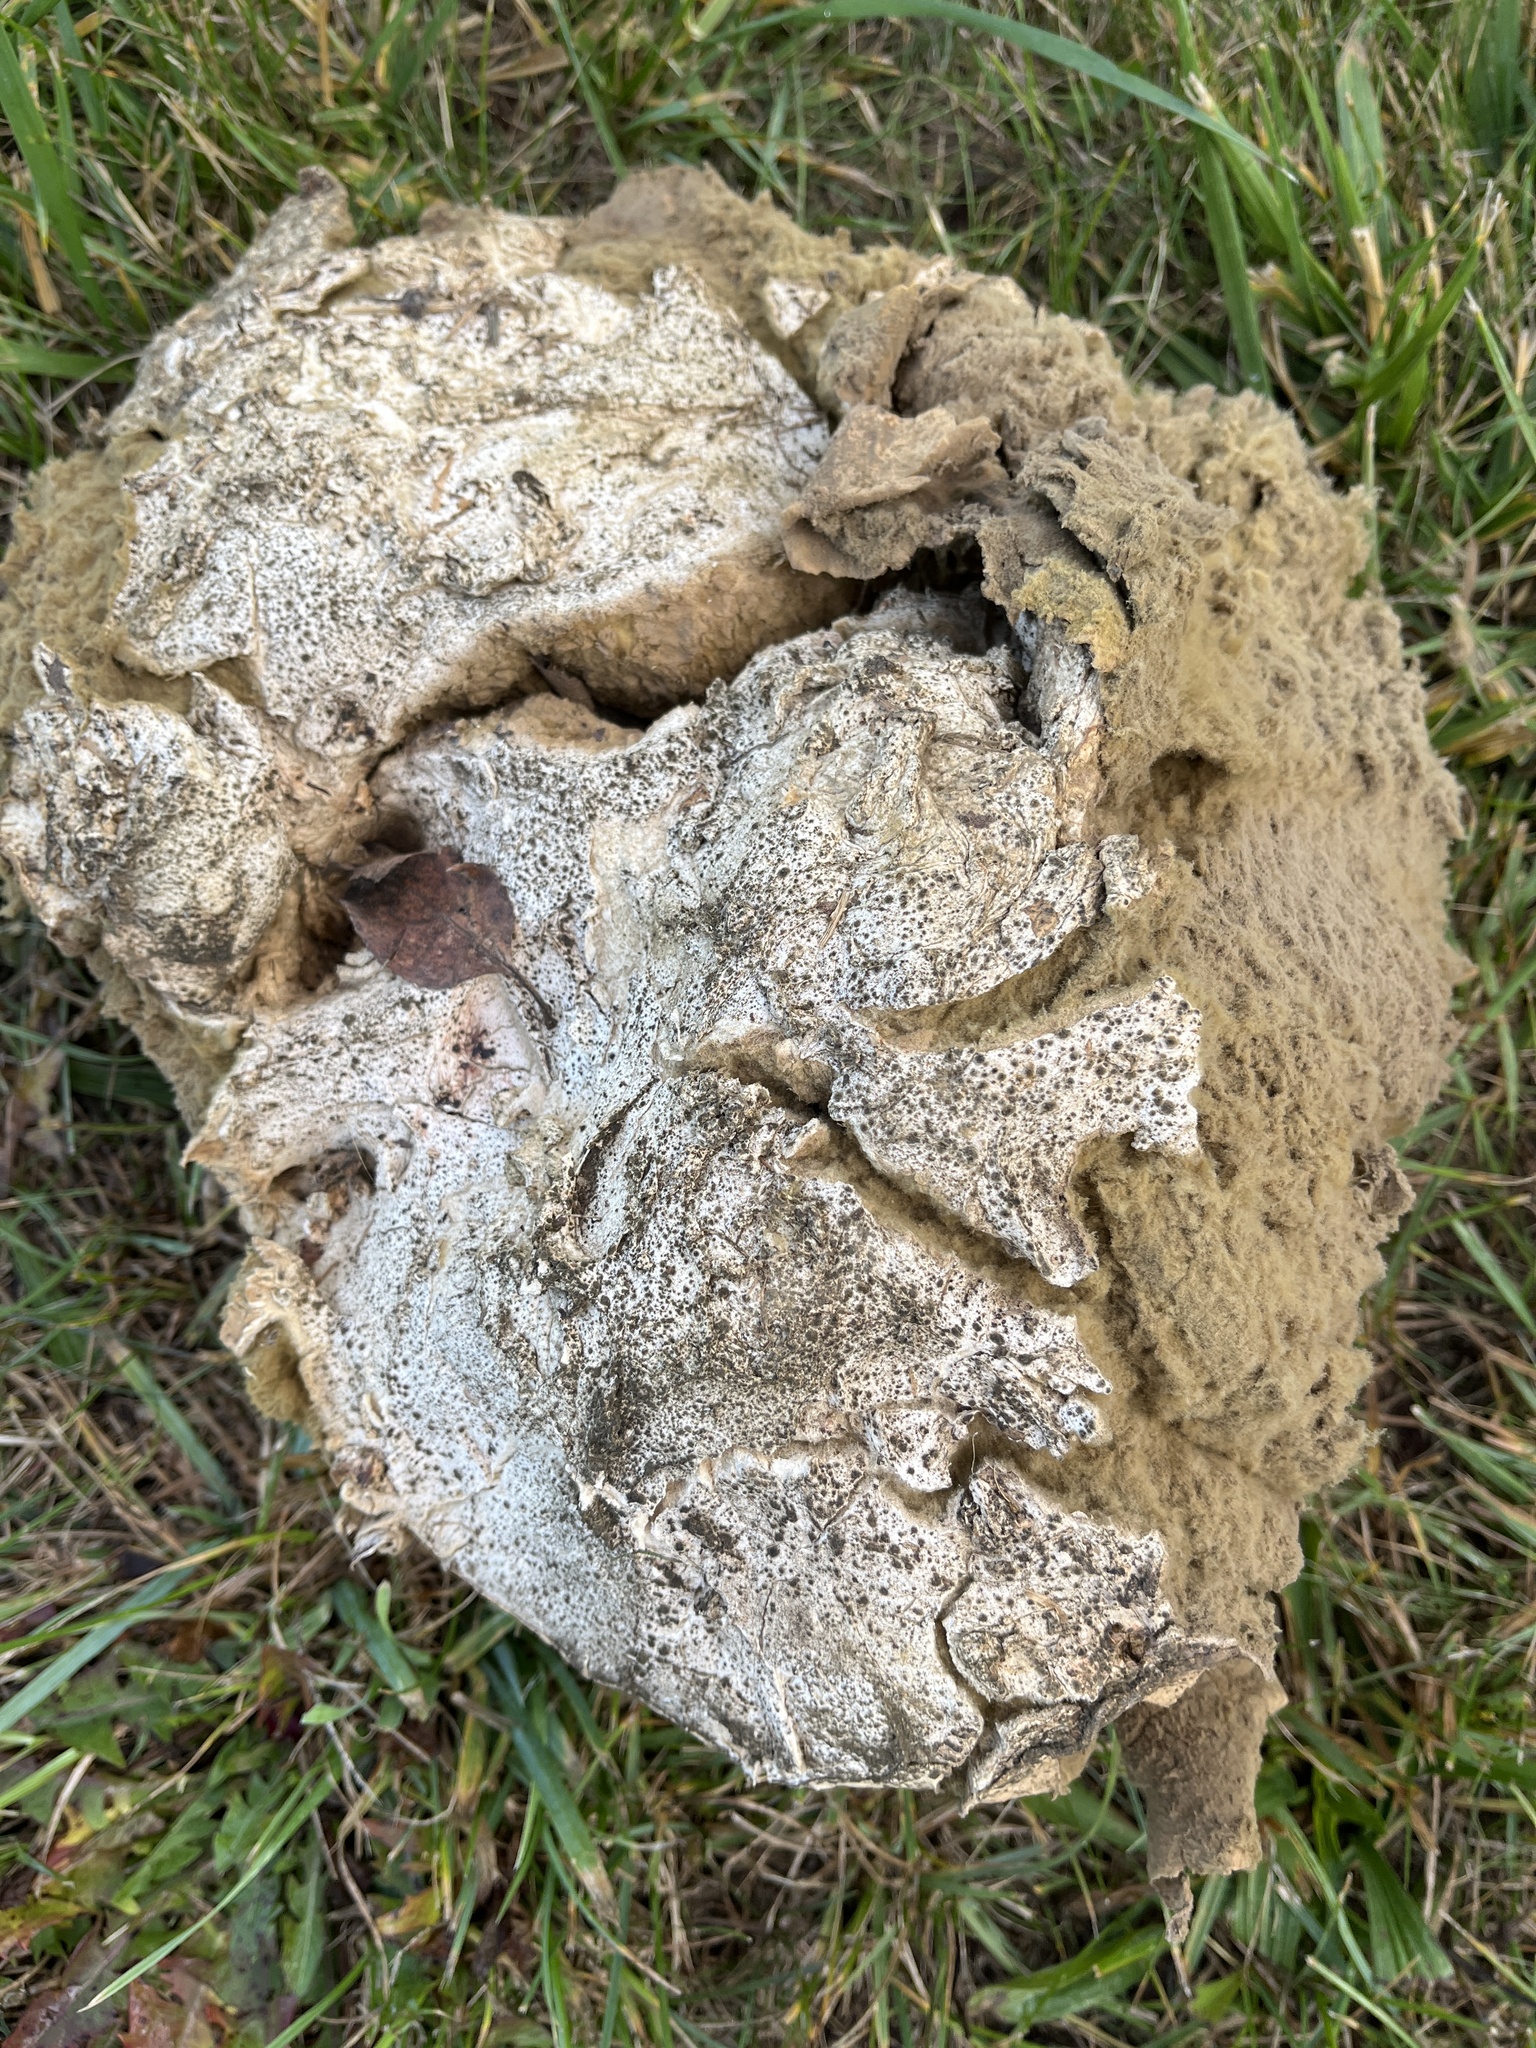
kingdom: Fungi
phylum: Basidiomycota
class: Agaricomycetes
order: Agaricales
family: Lycoperdaceae
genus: Calvatia
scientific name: Calvatia gigantea
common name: Giant puffball
